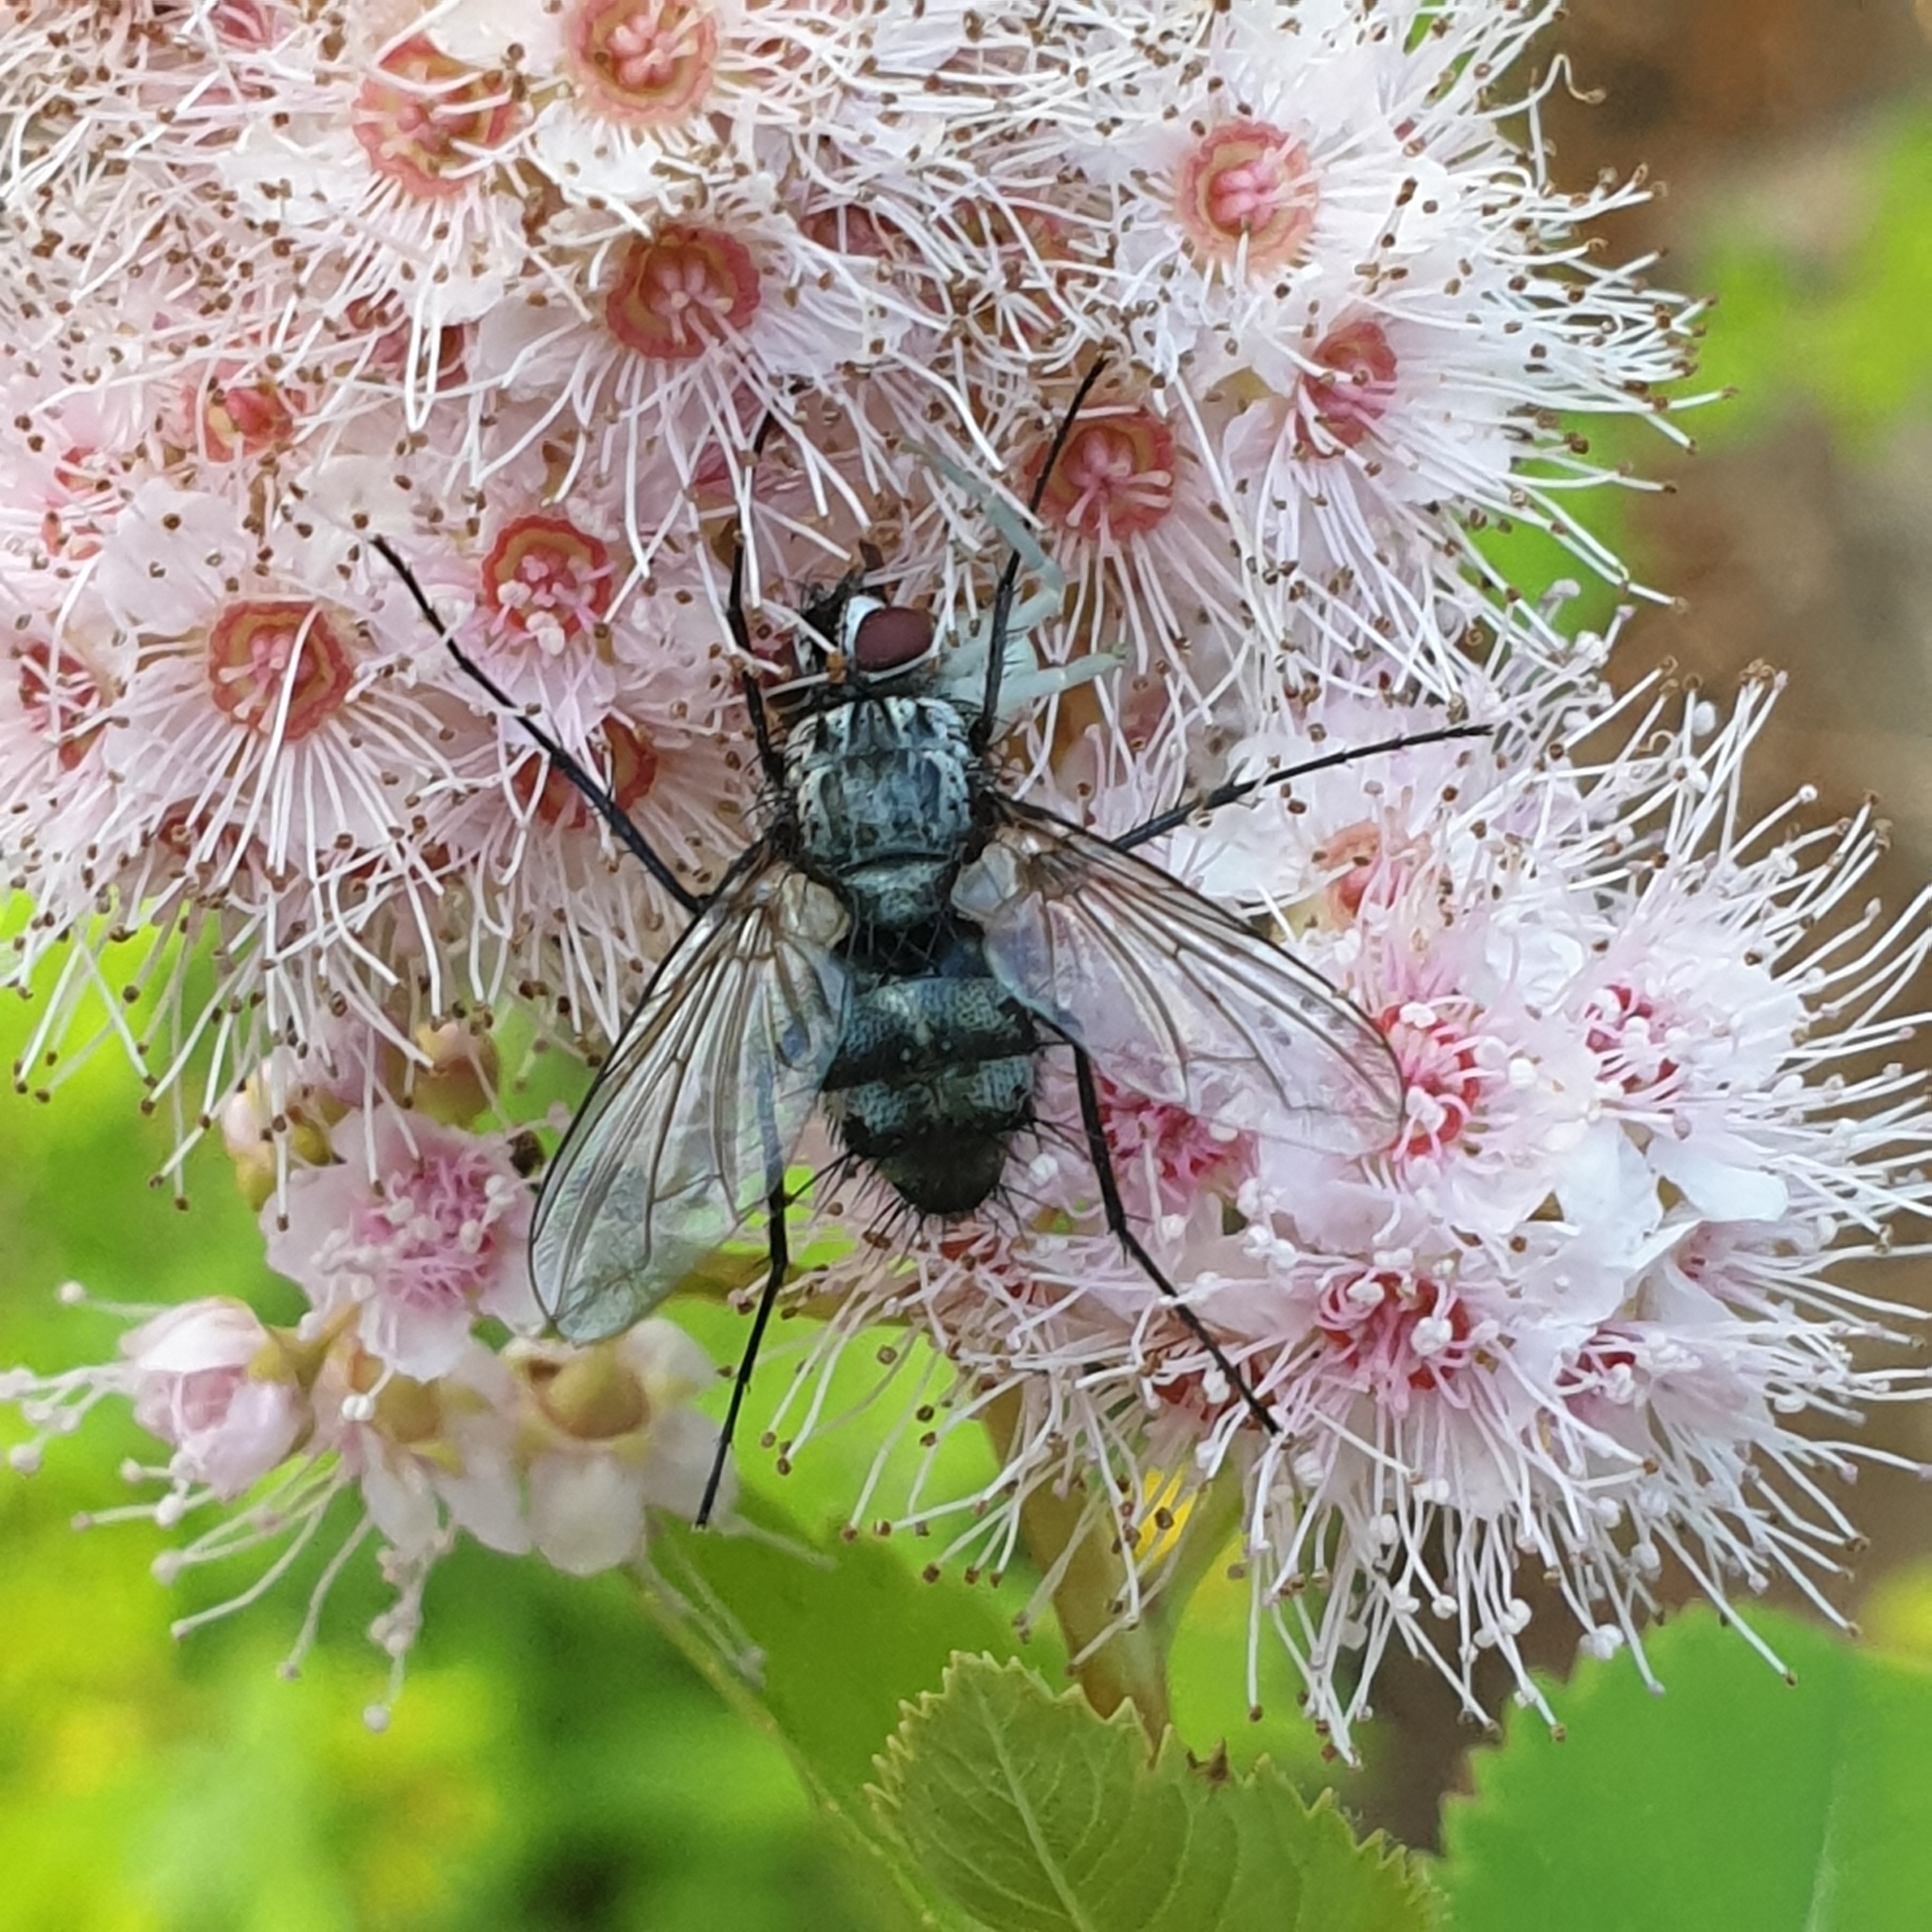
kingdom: Animalia
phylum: Arthropoda
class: Insecta
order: Diptera
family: Tachinidae
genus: Dinera
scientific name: Dinera ferina
